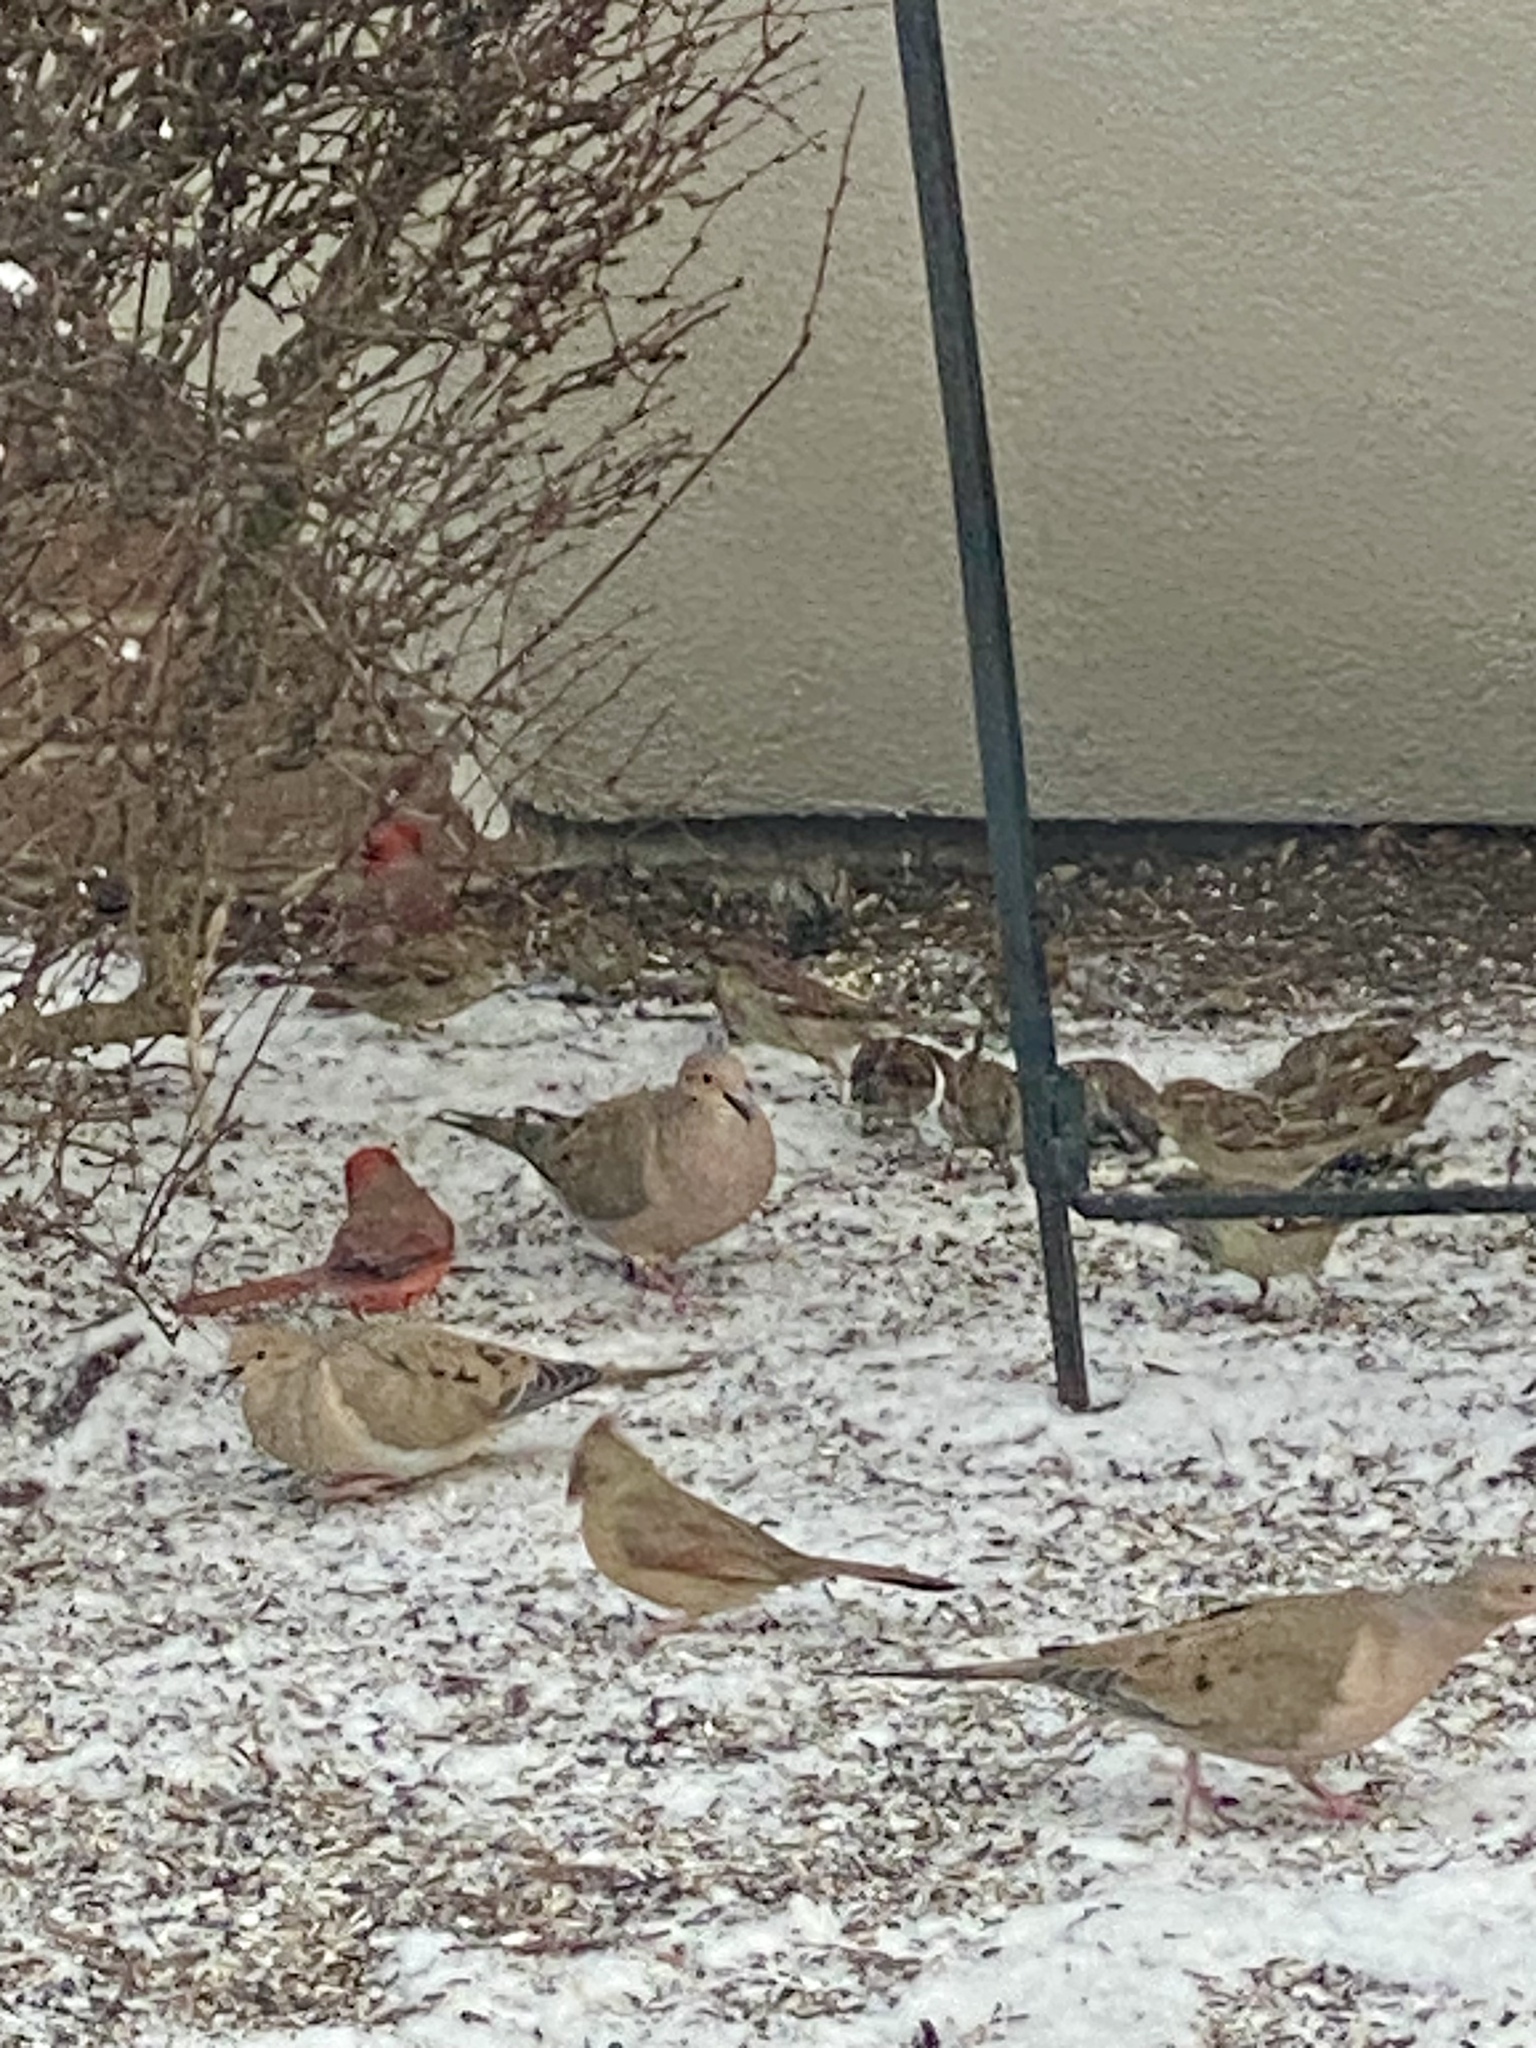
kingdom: Animalia
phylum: Chordata
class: Aves
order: Columbiformes
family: Columbidae
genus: Zenaida
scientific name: Zenaida macroura
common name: Mourning dove
